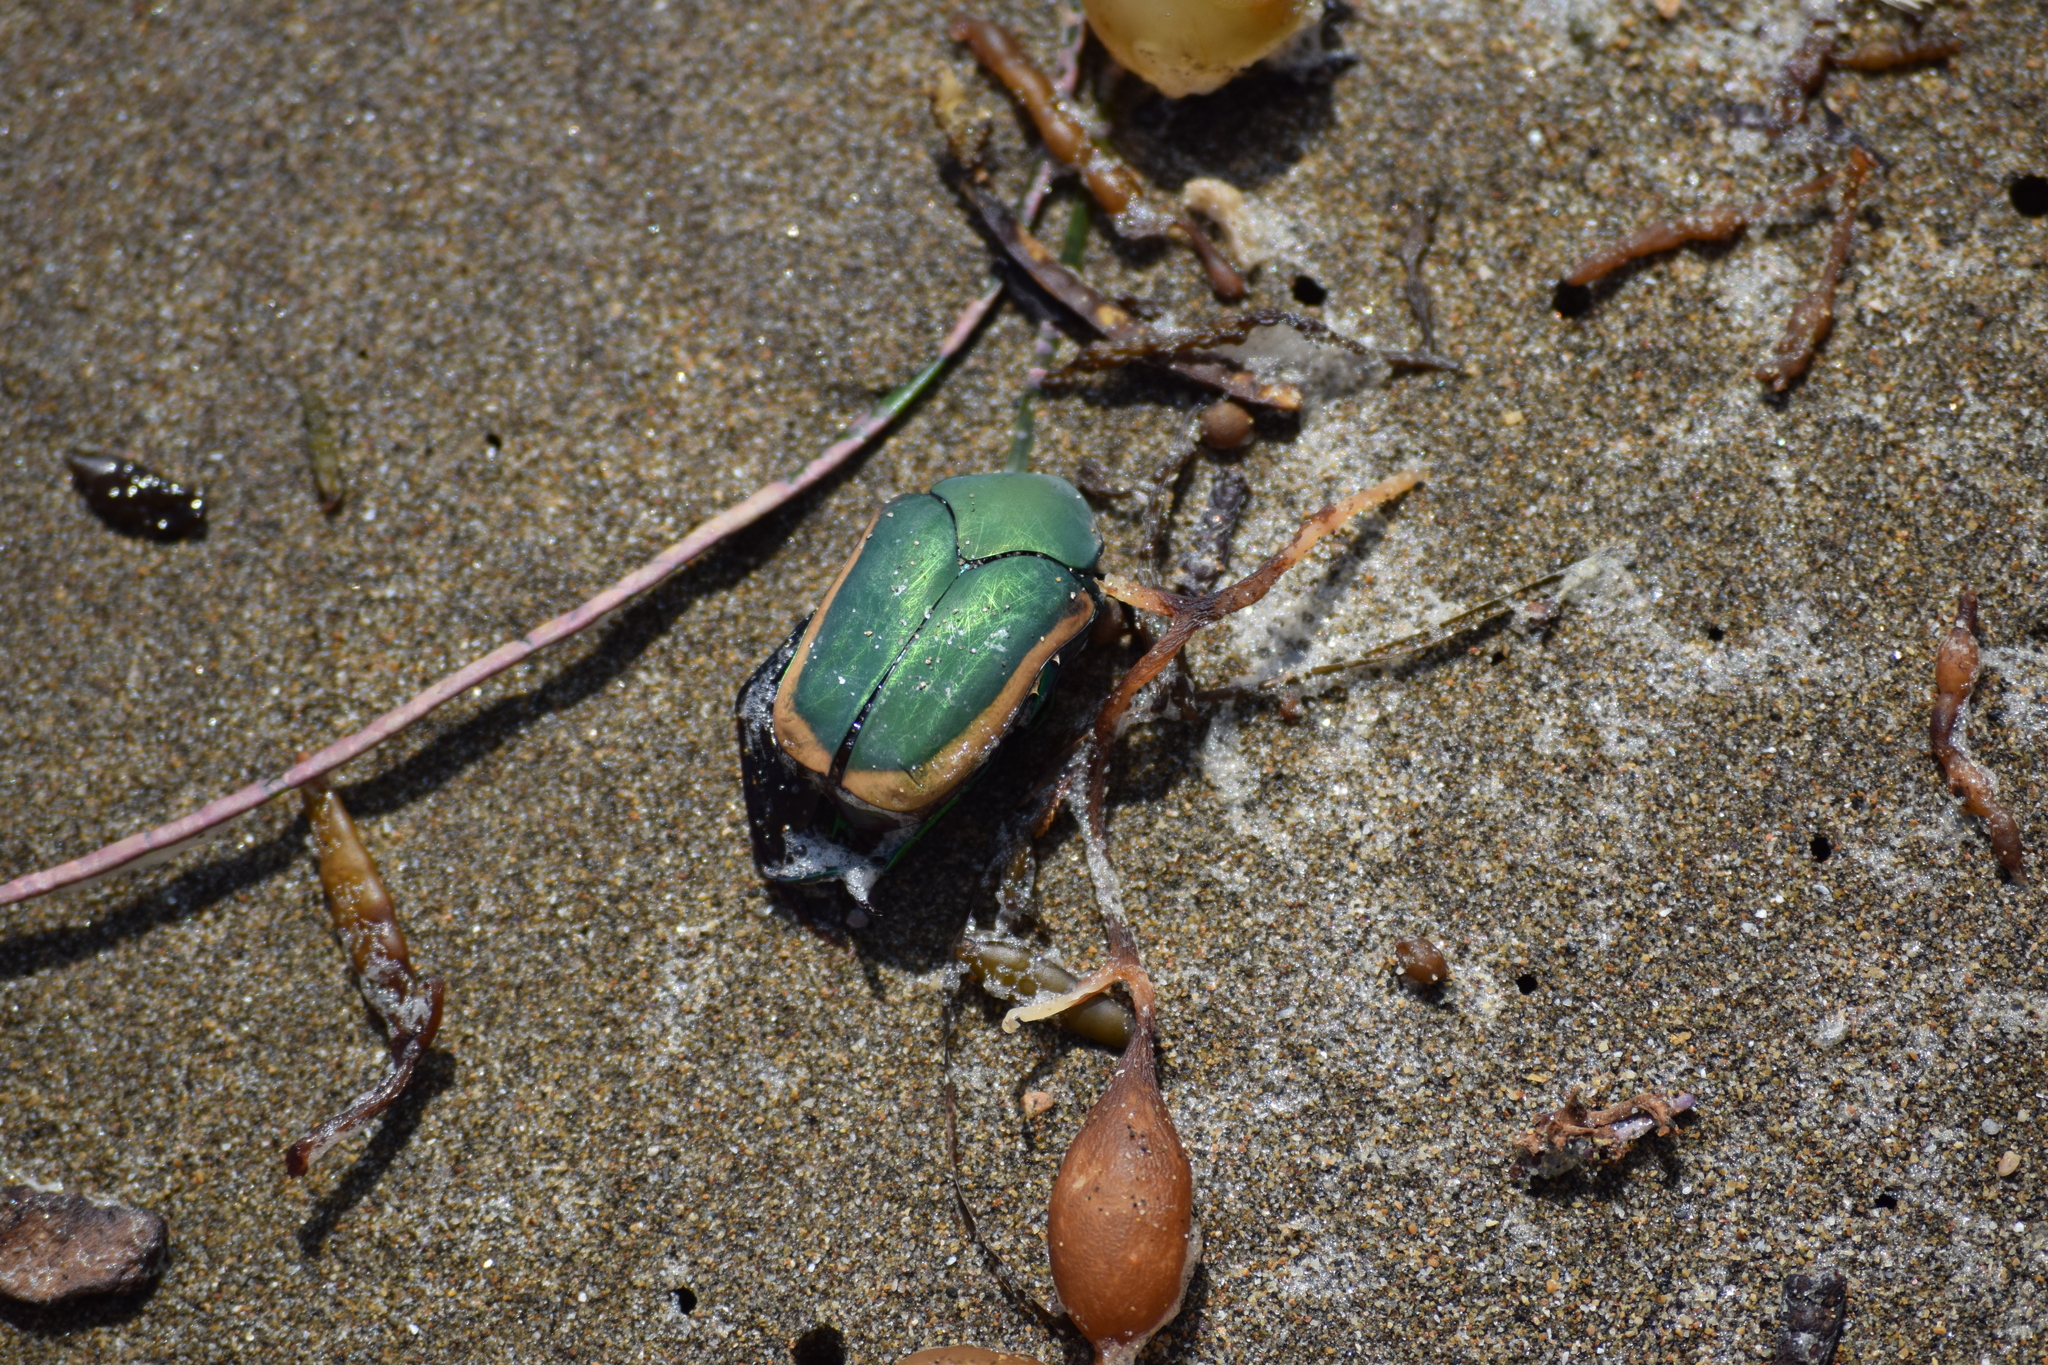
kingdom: Animalia
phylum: Arthropoda
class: Insecta
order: Coleoptera
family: Scarabaeidae
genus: Cotinis
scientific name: Cotinis mutabilis
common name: Figeater beetle
